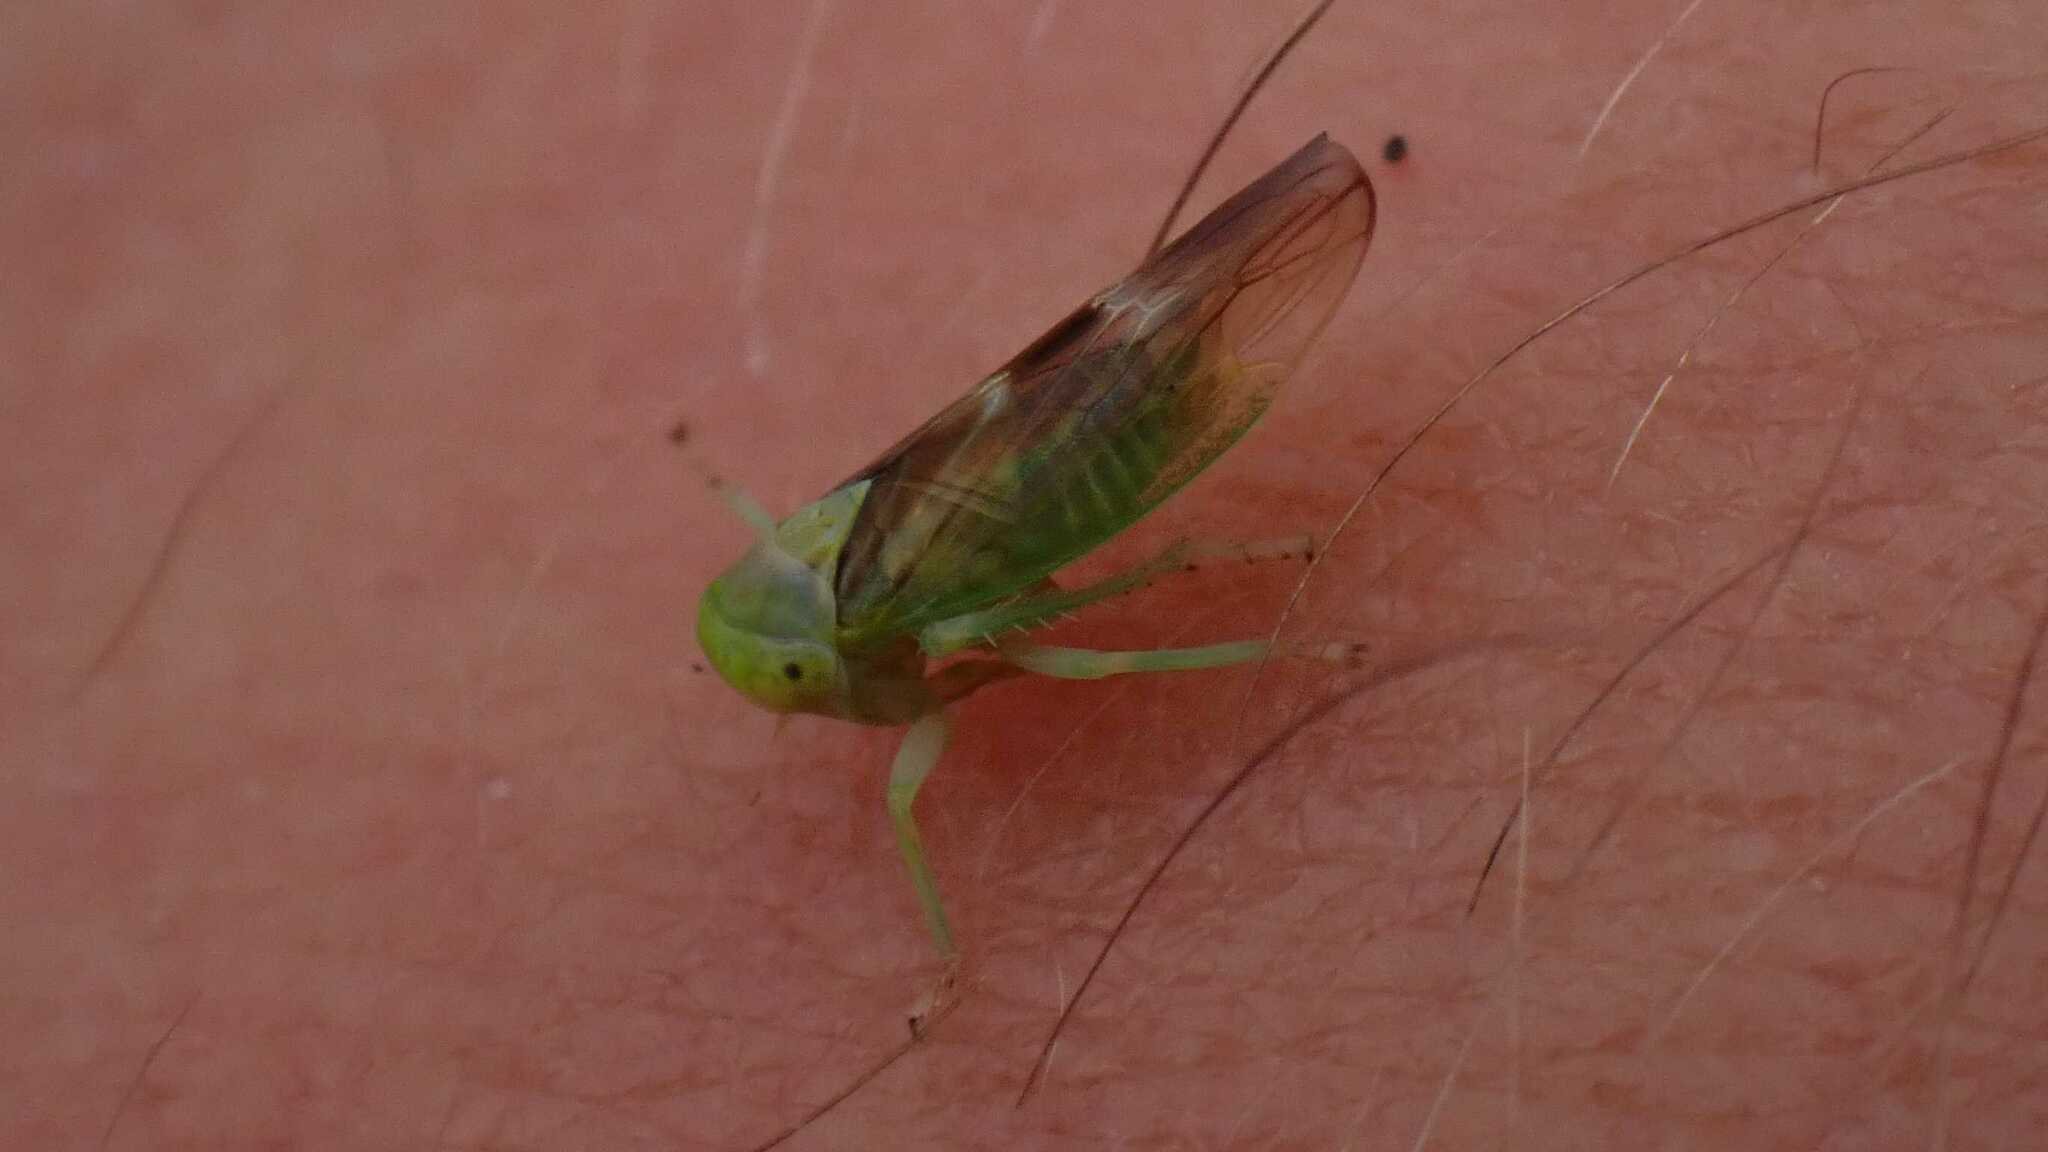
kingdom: Animalia
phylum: Arthropoda
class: Insecta
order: Hemiptera
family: Cicadellidae
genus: Populicerus
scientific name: Populicerus nitidissimus
